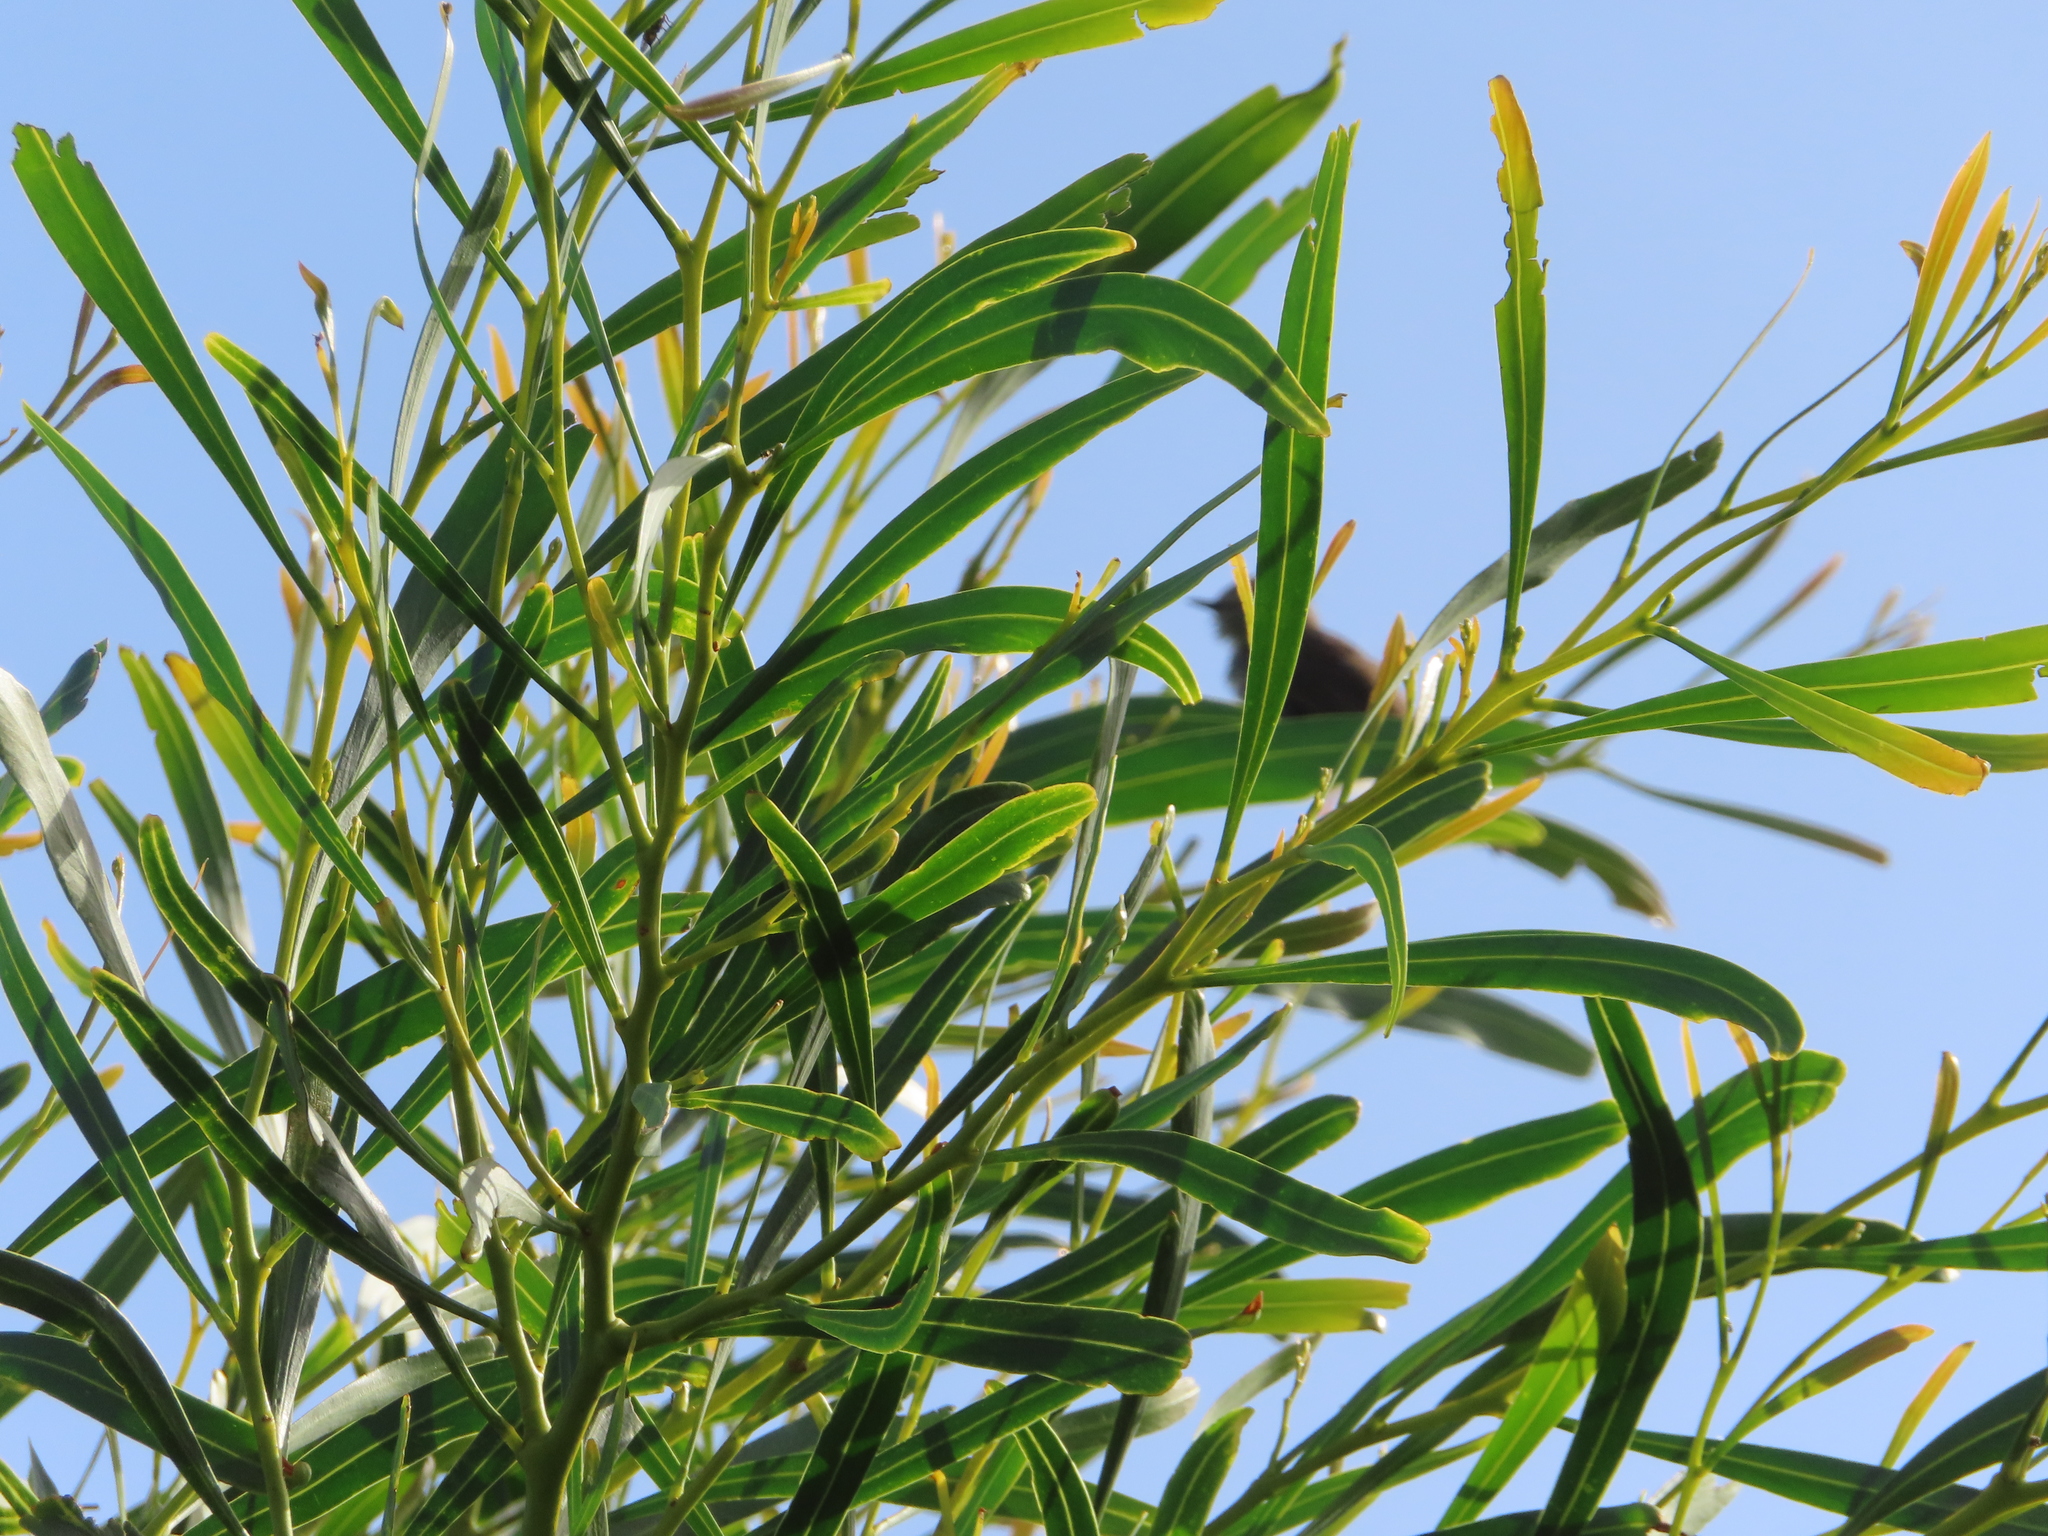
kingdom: Plantae
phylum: Tracheophyta
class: Magnoliopsida
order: Fabales
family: Fabaceae
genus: Acacia
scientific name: Acacia saligna
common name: Orange wattle
